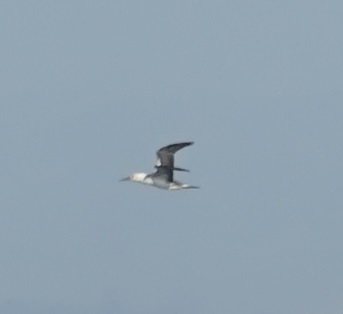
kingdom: Animalia
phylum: Chordata
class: Aves
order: Suliformes
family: Sulidae
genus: Morus
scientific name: Morus serrator
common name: Australasian gannet
